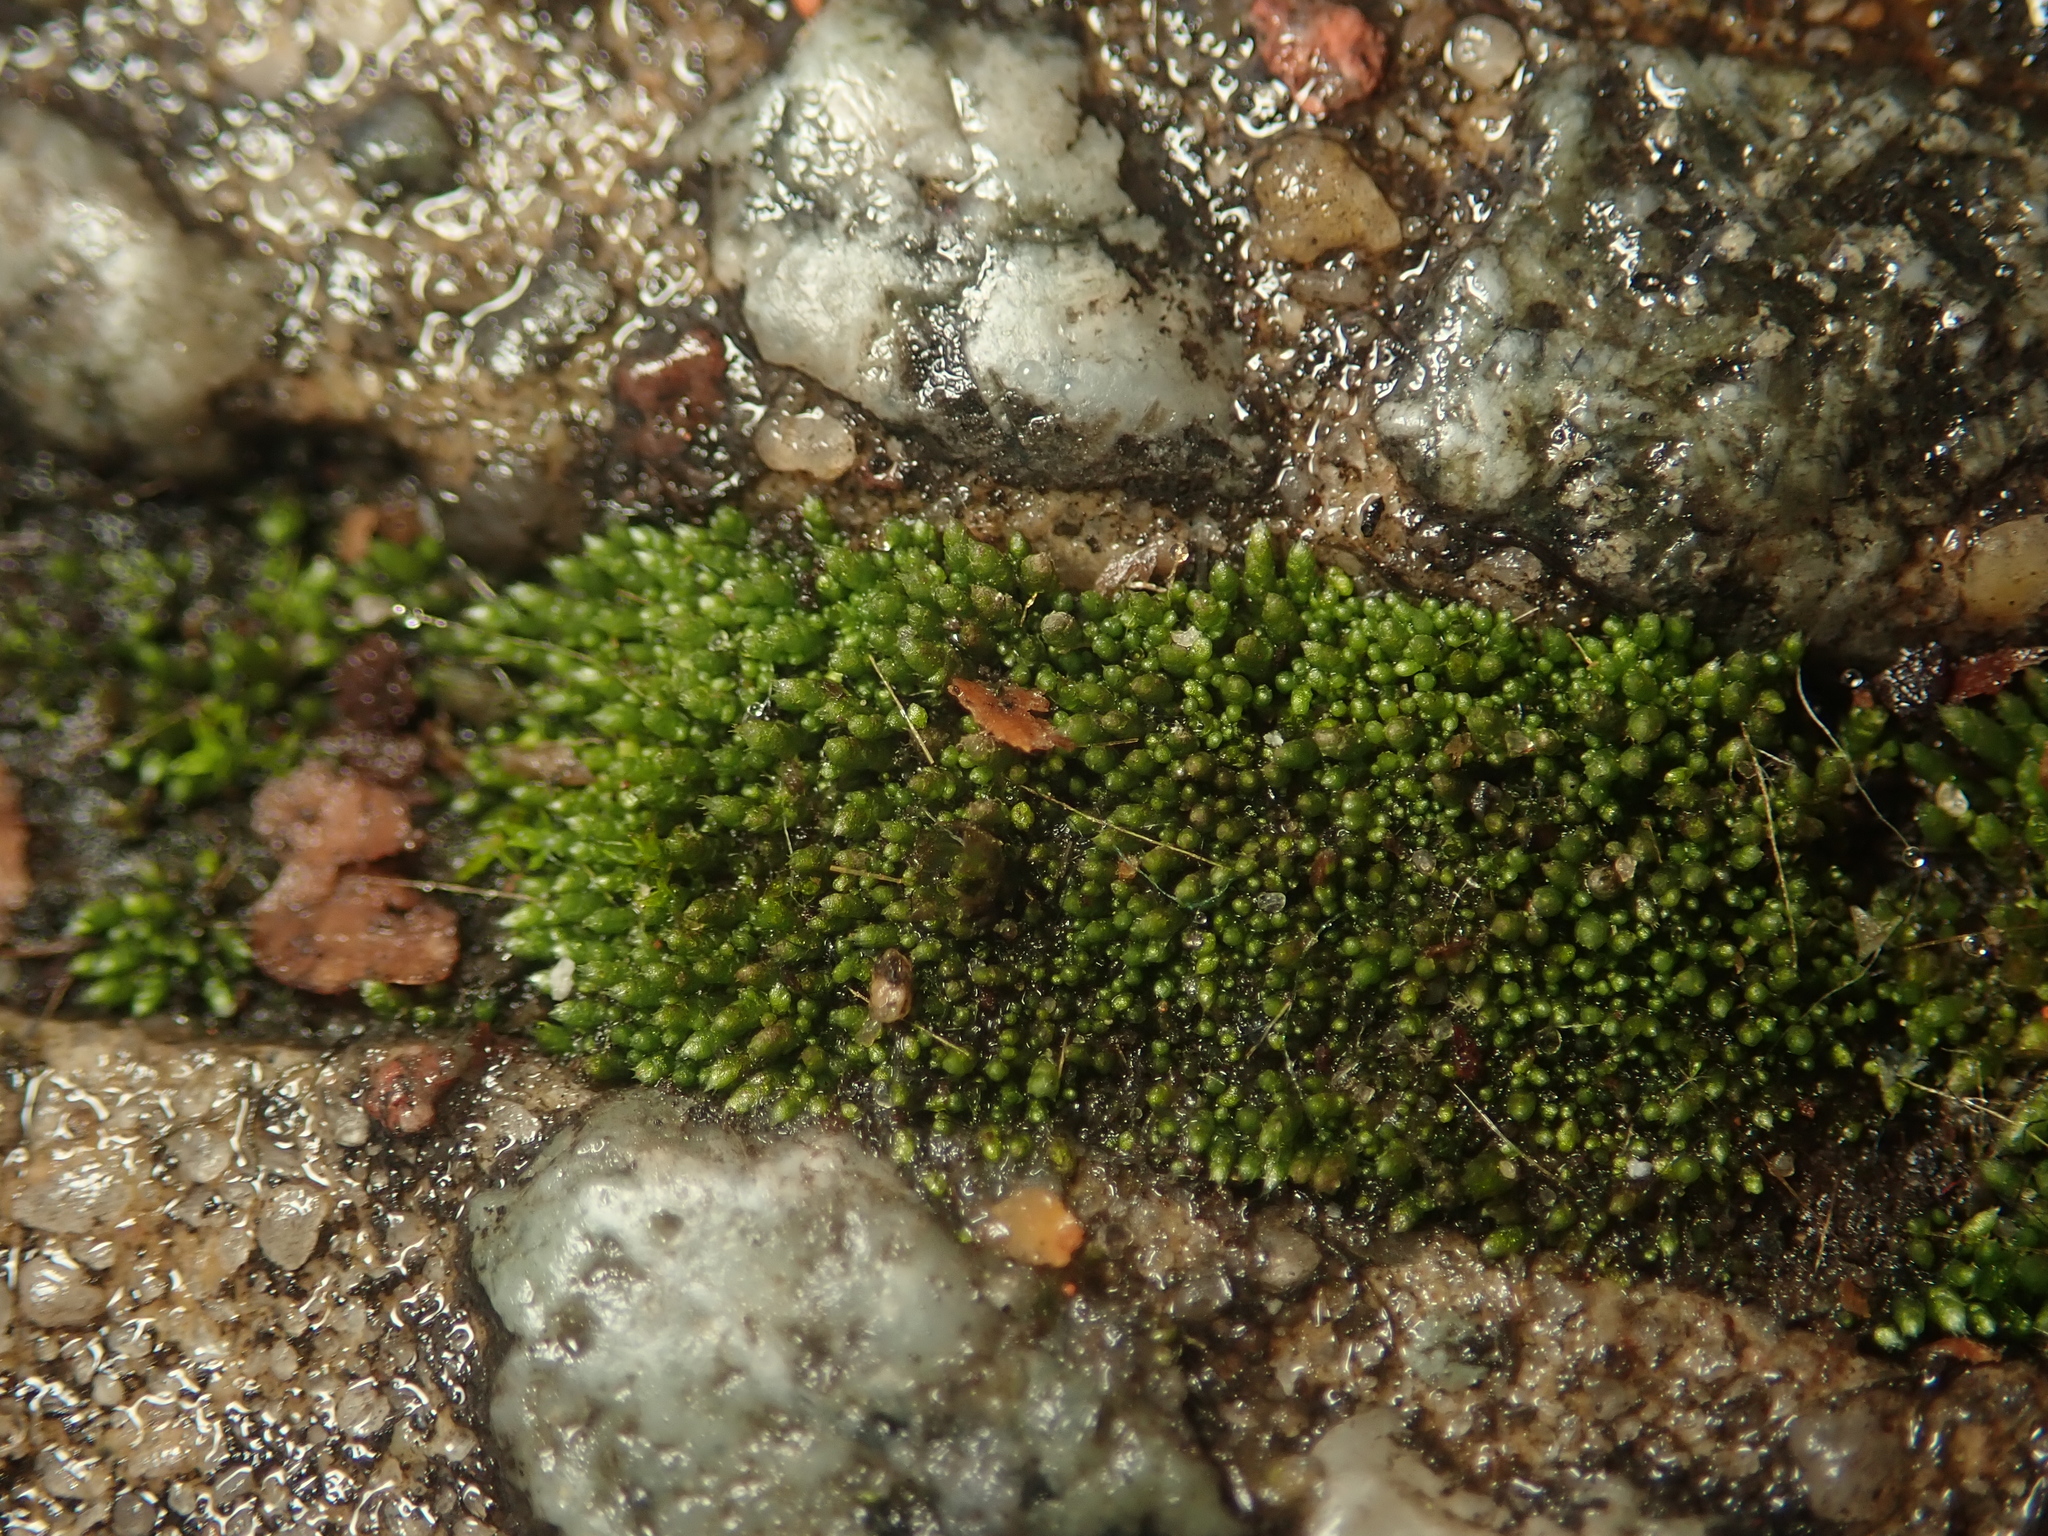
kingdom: Plantae
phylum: Bryophyta
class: Bryopsida
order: Bryales
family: Bryaceae
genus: Bryum
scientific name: Bryum argenteum
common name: Silver-moss
